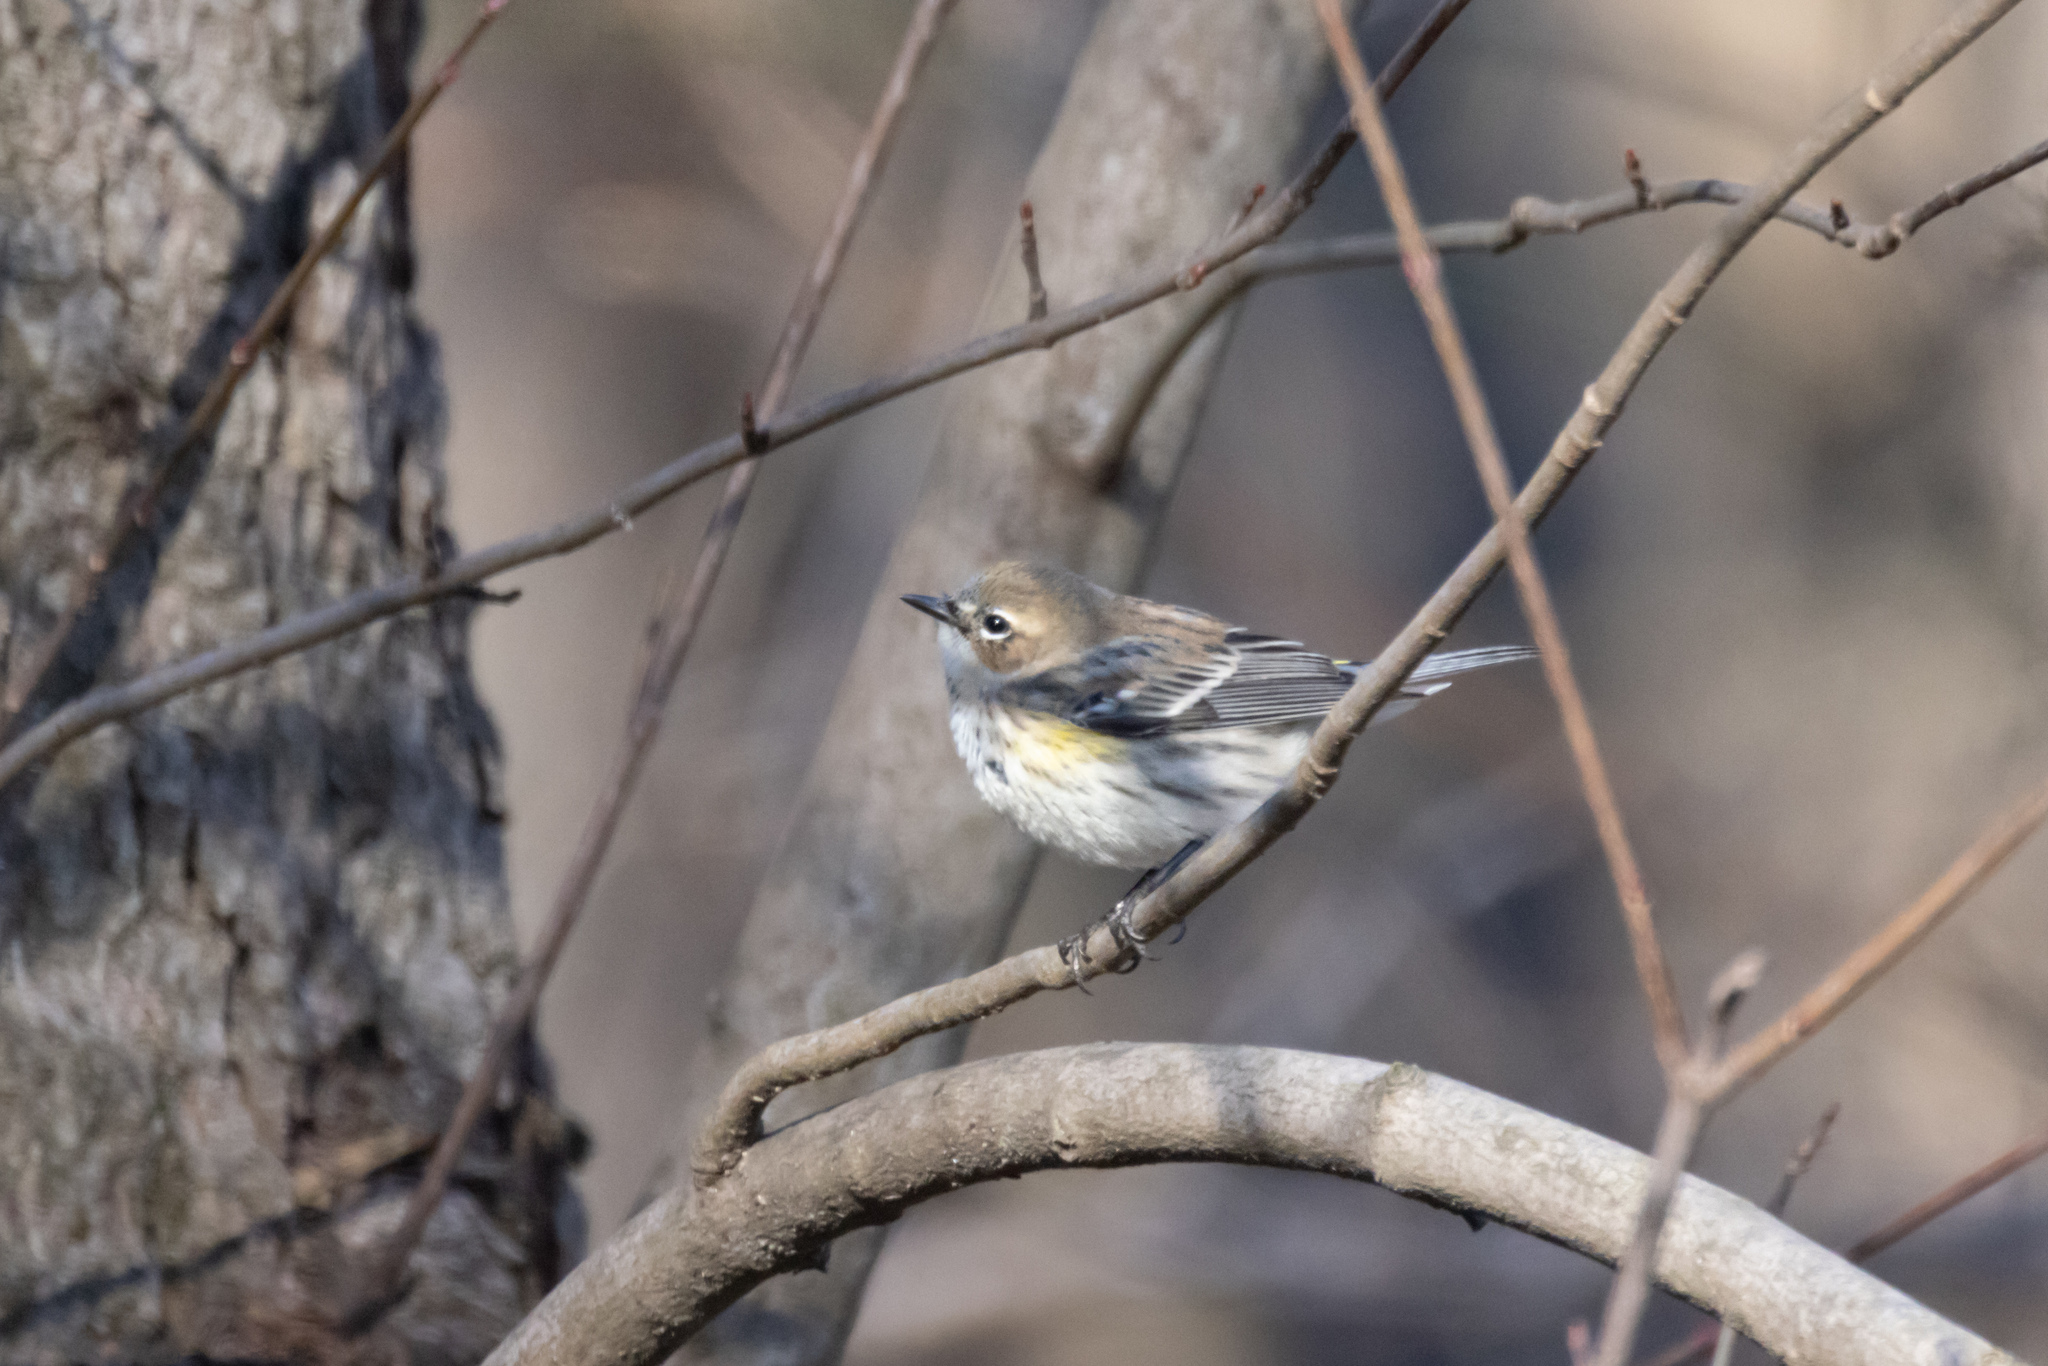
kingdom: Animalia
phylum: Chordata
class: Aves
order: Passeriformes
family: Parulidae
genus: Setophaga
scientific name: Setophaga coronata
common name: Myrtle warbler
